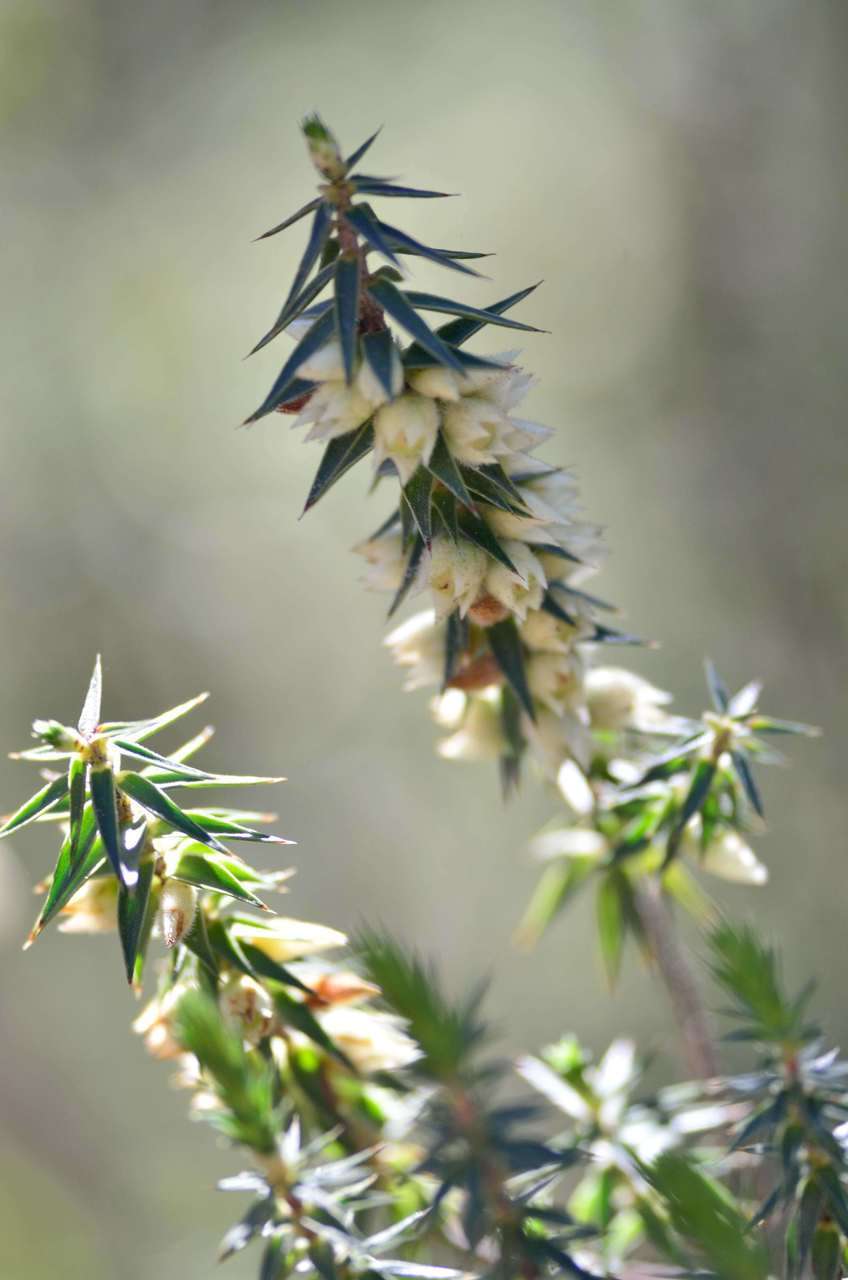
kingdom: Plantae
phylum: Tracheophyta
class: Magnoliopsida
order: Ericales
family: Ericaceae
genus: Melichrus
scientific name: Melichrus urceolatus
